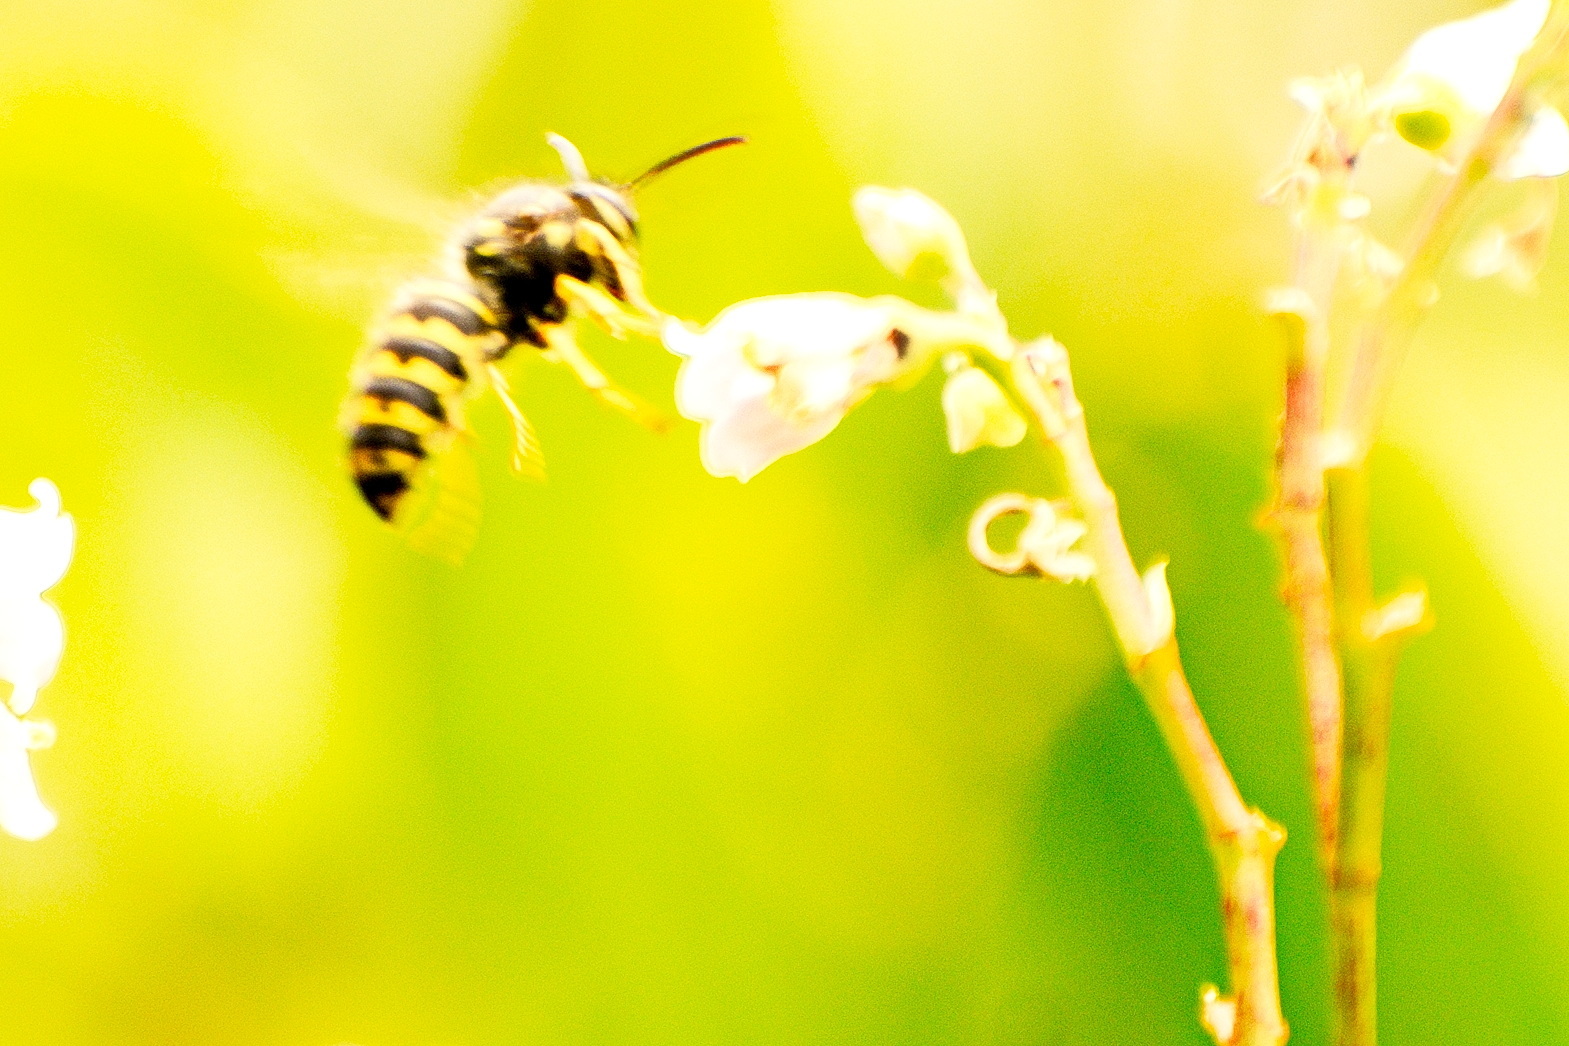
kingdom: Animalia
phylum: Arthropoda
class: Insecta
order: Hymenoptera
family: Vespidae
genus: Dolichovespula
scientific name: Dolichovespula arenaria
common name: Aerial yellowjacket
